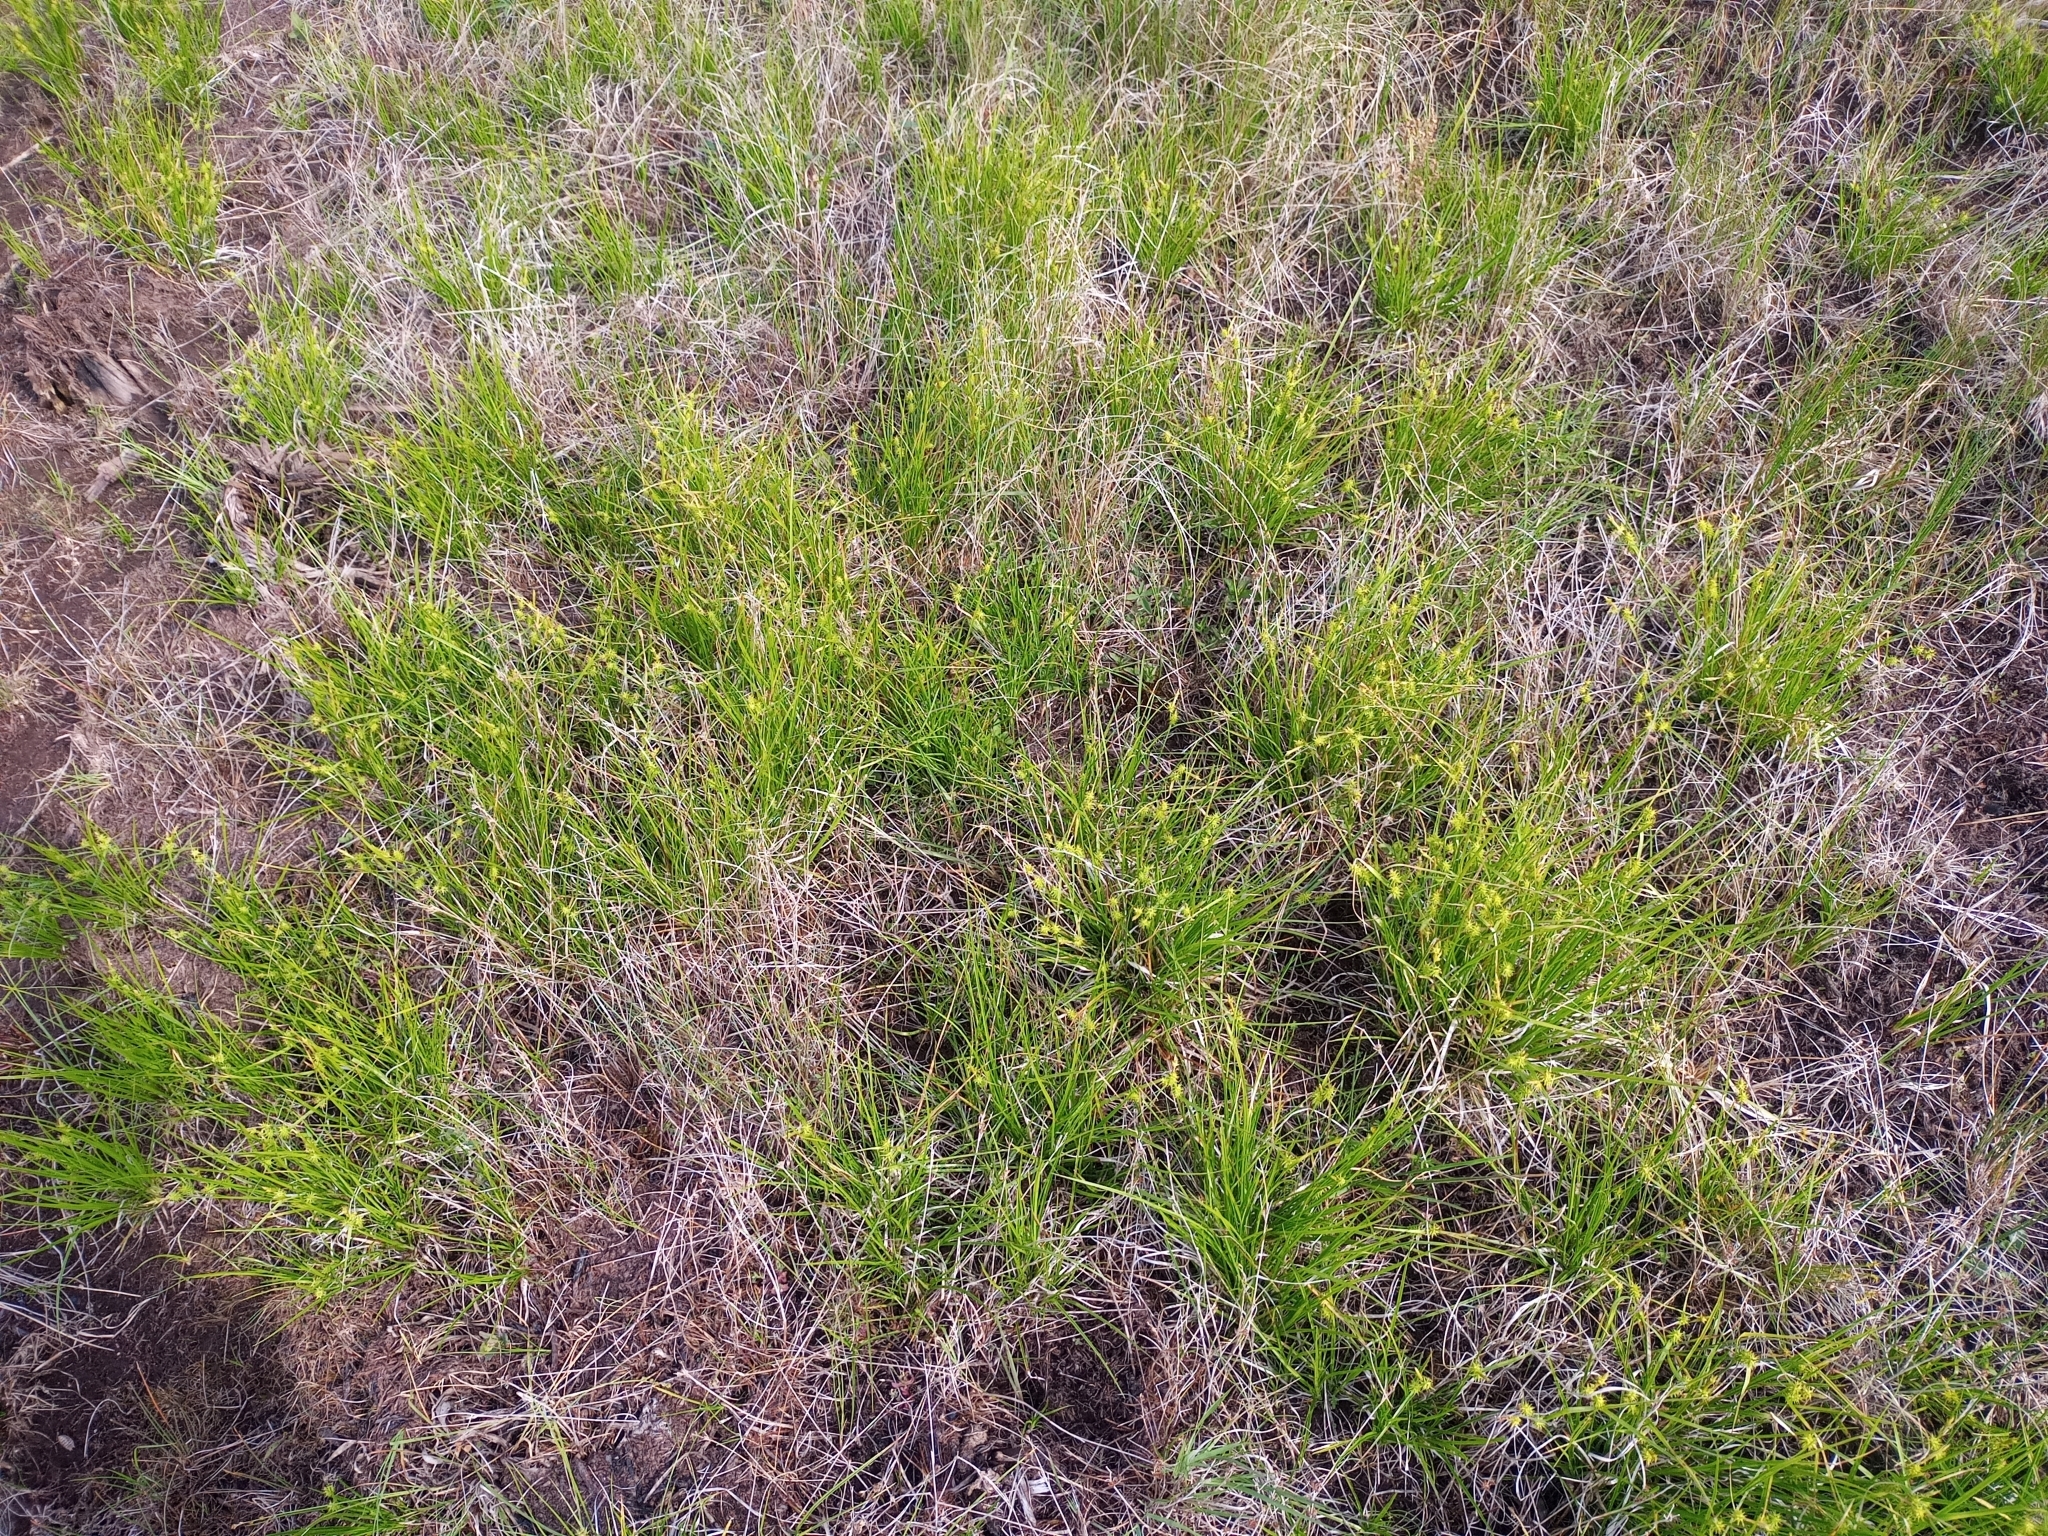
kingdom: Plantae
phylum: Tracheophyta
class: Liliopsida
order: Poales
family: Cyperaceae
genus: Carex
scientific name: Carex cryptolepis
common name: Northeastern sedge
